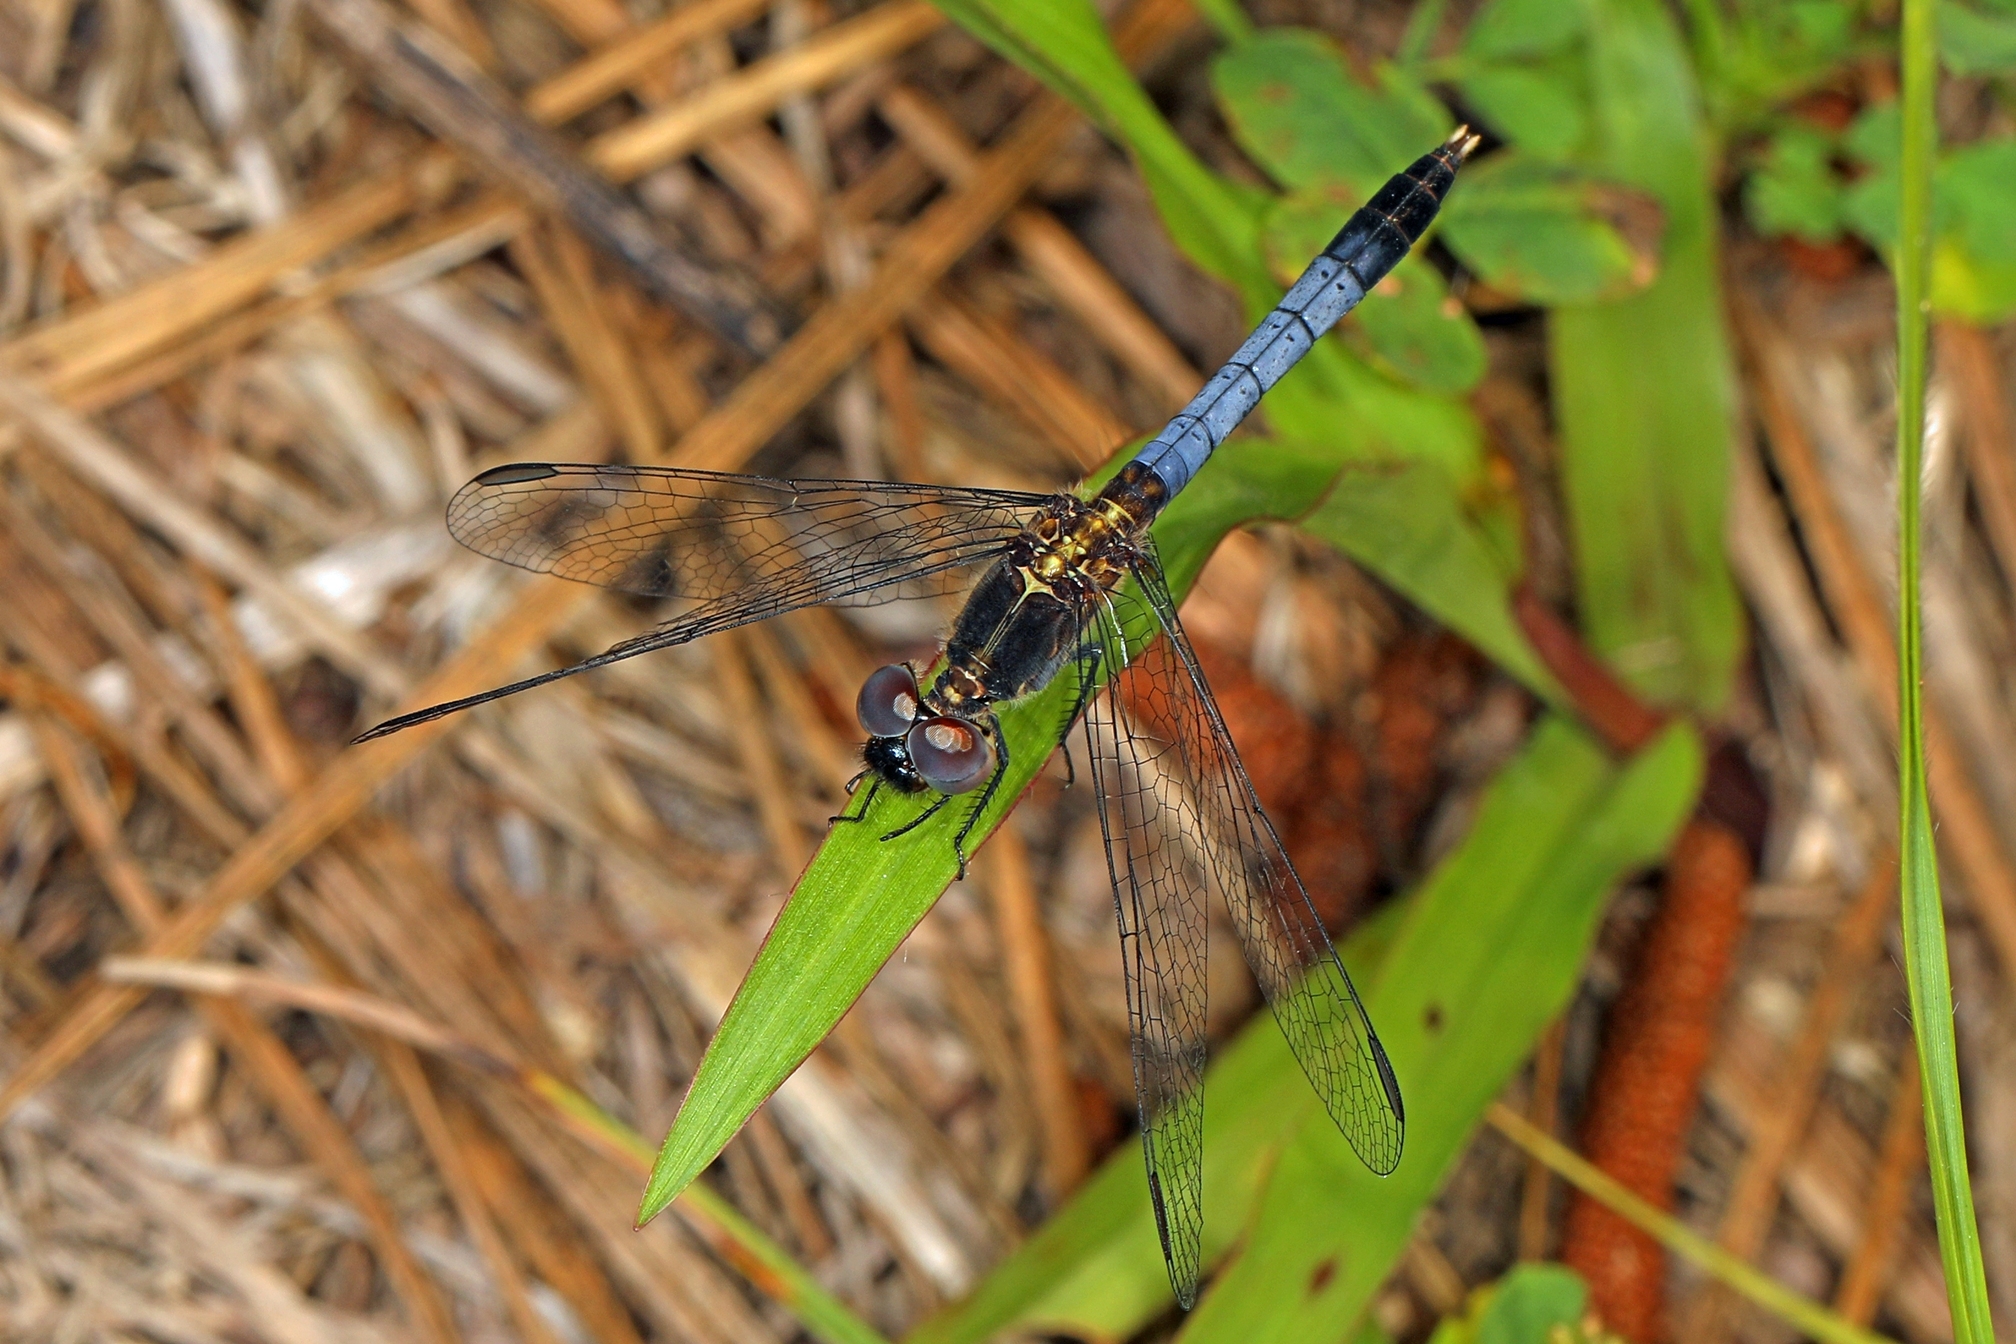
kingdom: Animalia
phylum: Arthropoda
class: Insecta
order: Odonata
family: Libellulidae
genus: Erythrodiplax
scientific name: Erythrodiplax minuscula
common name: Little blue dragonlet
